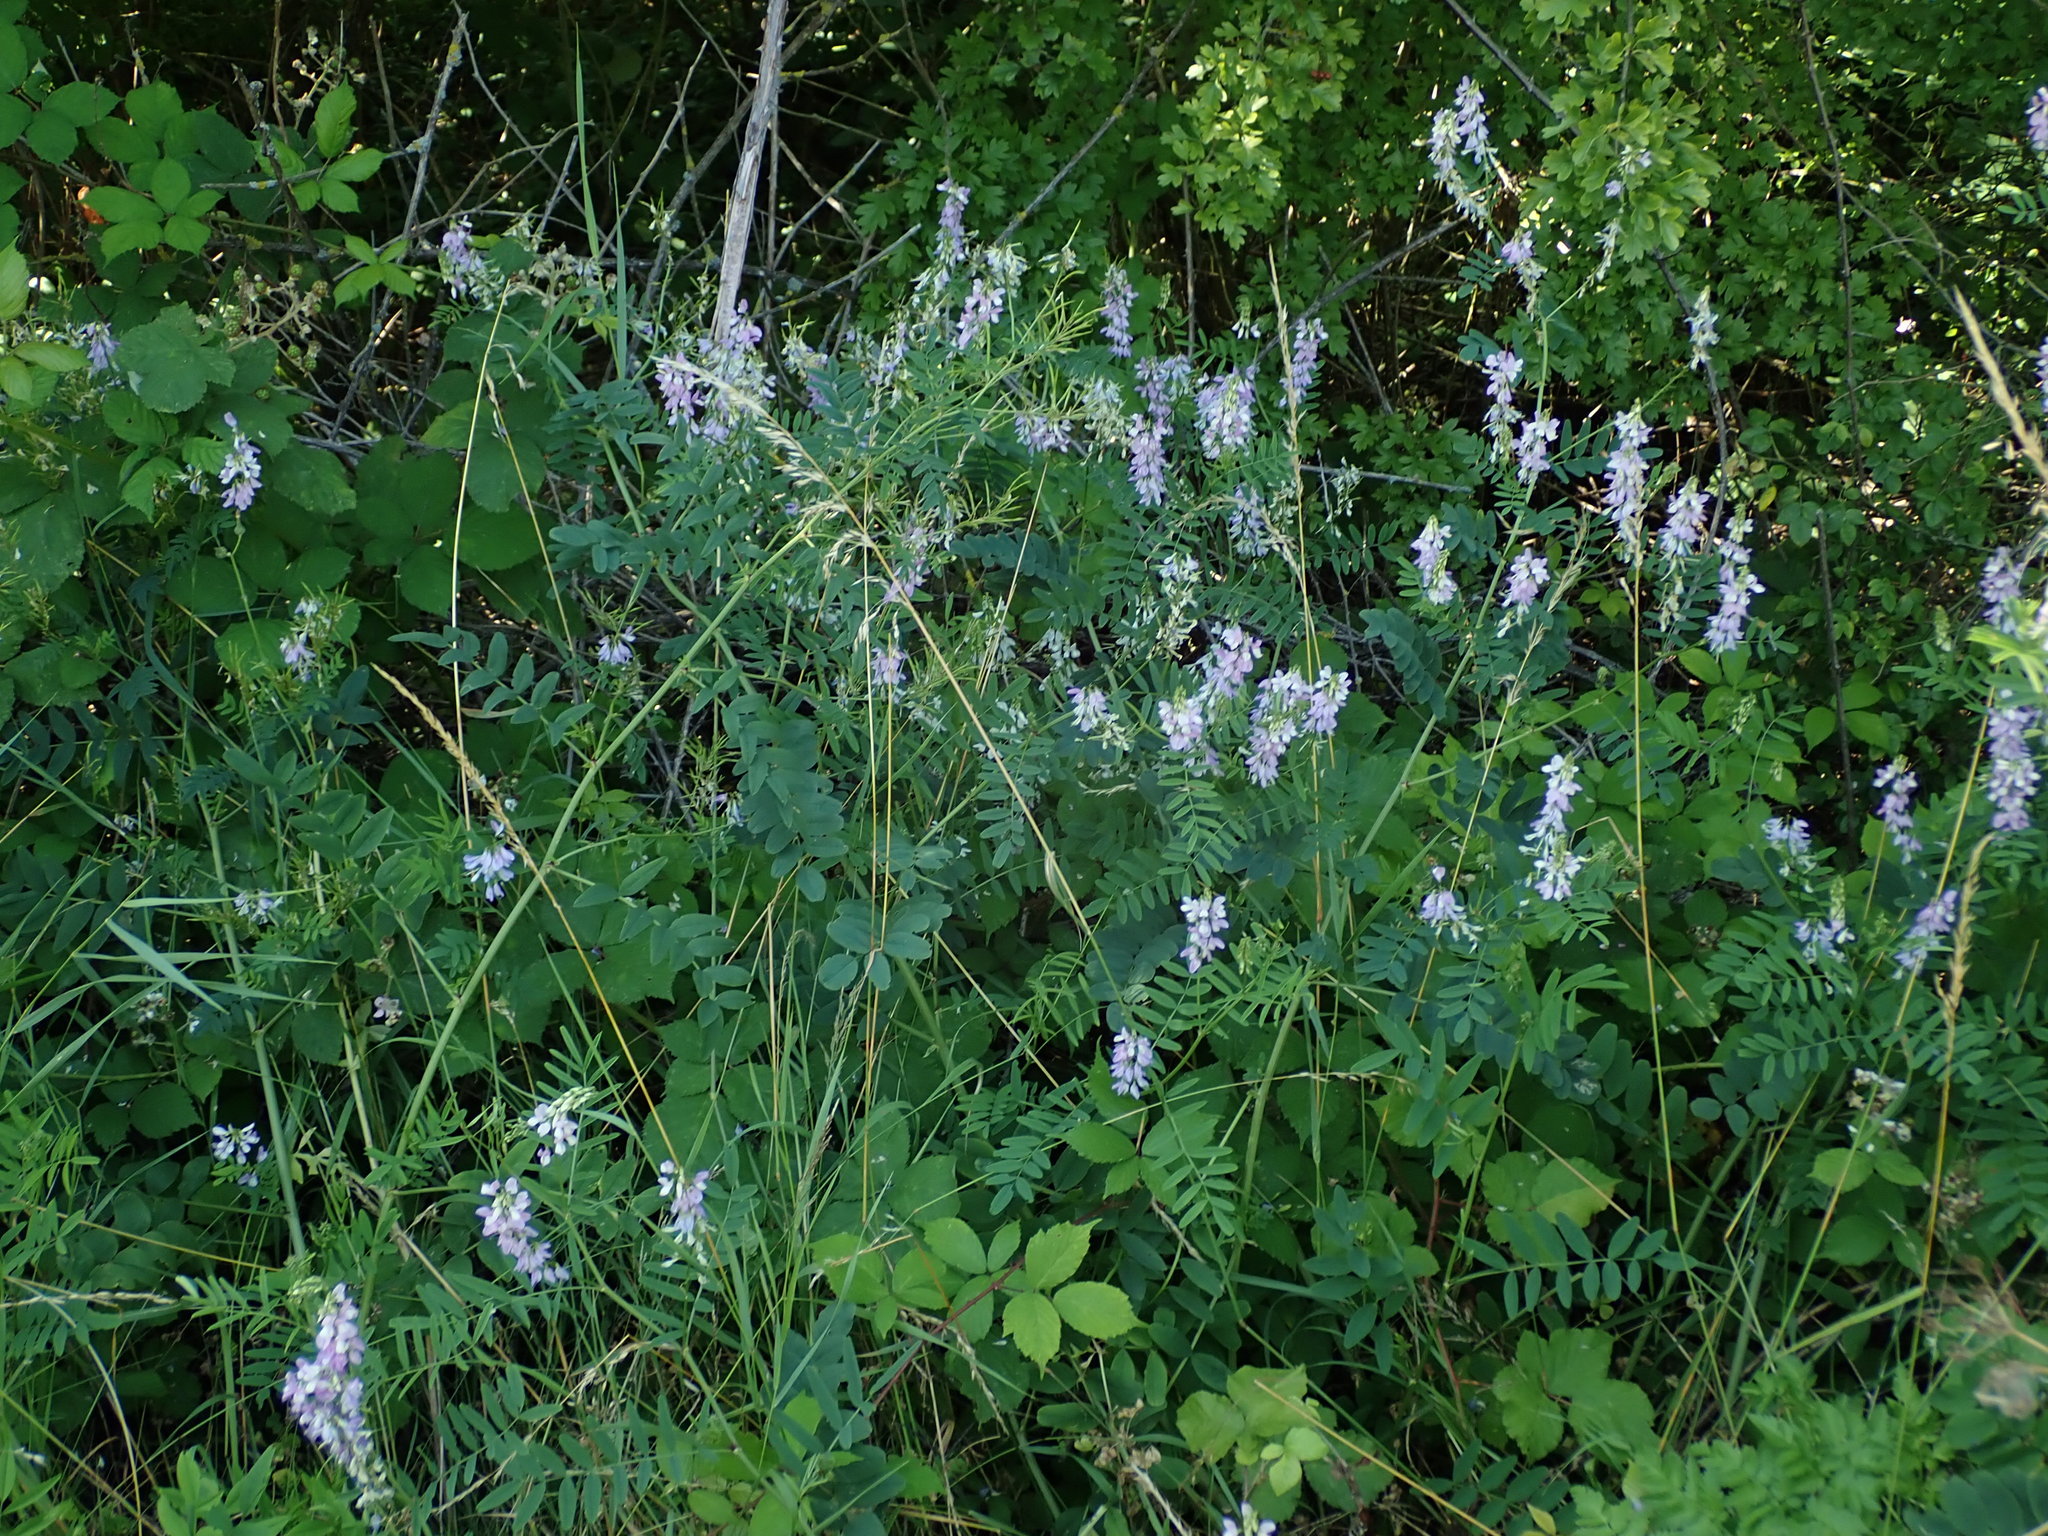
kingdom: Plantae
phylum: Tracheophyta
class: Magnoliopsida
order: Fabales
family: Fabaceae
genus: Galega
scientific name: Galega officinalis
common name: Goat's-rue
